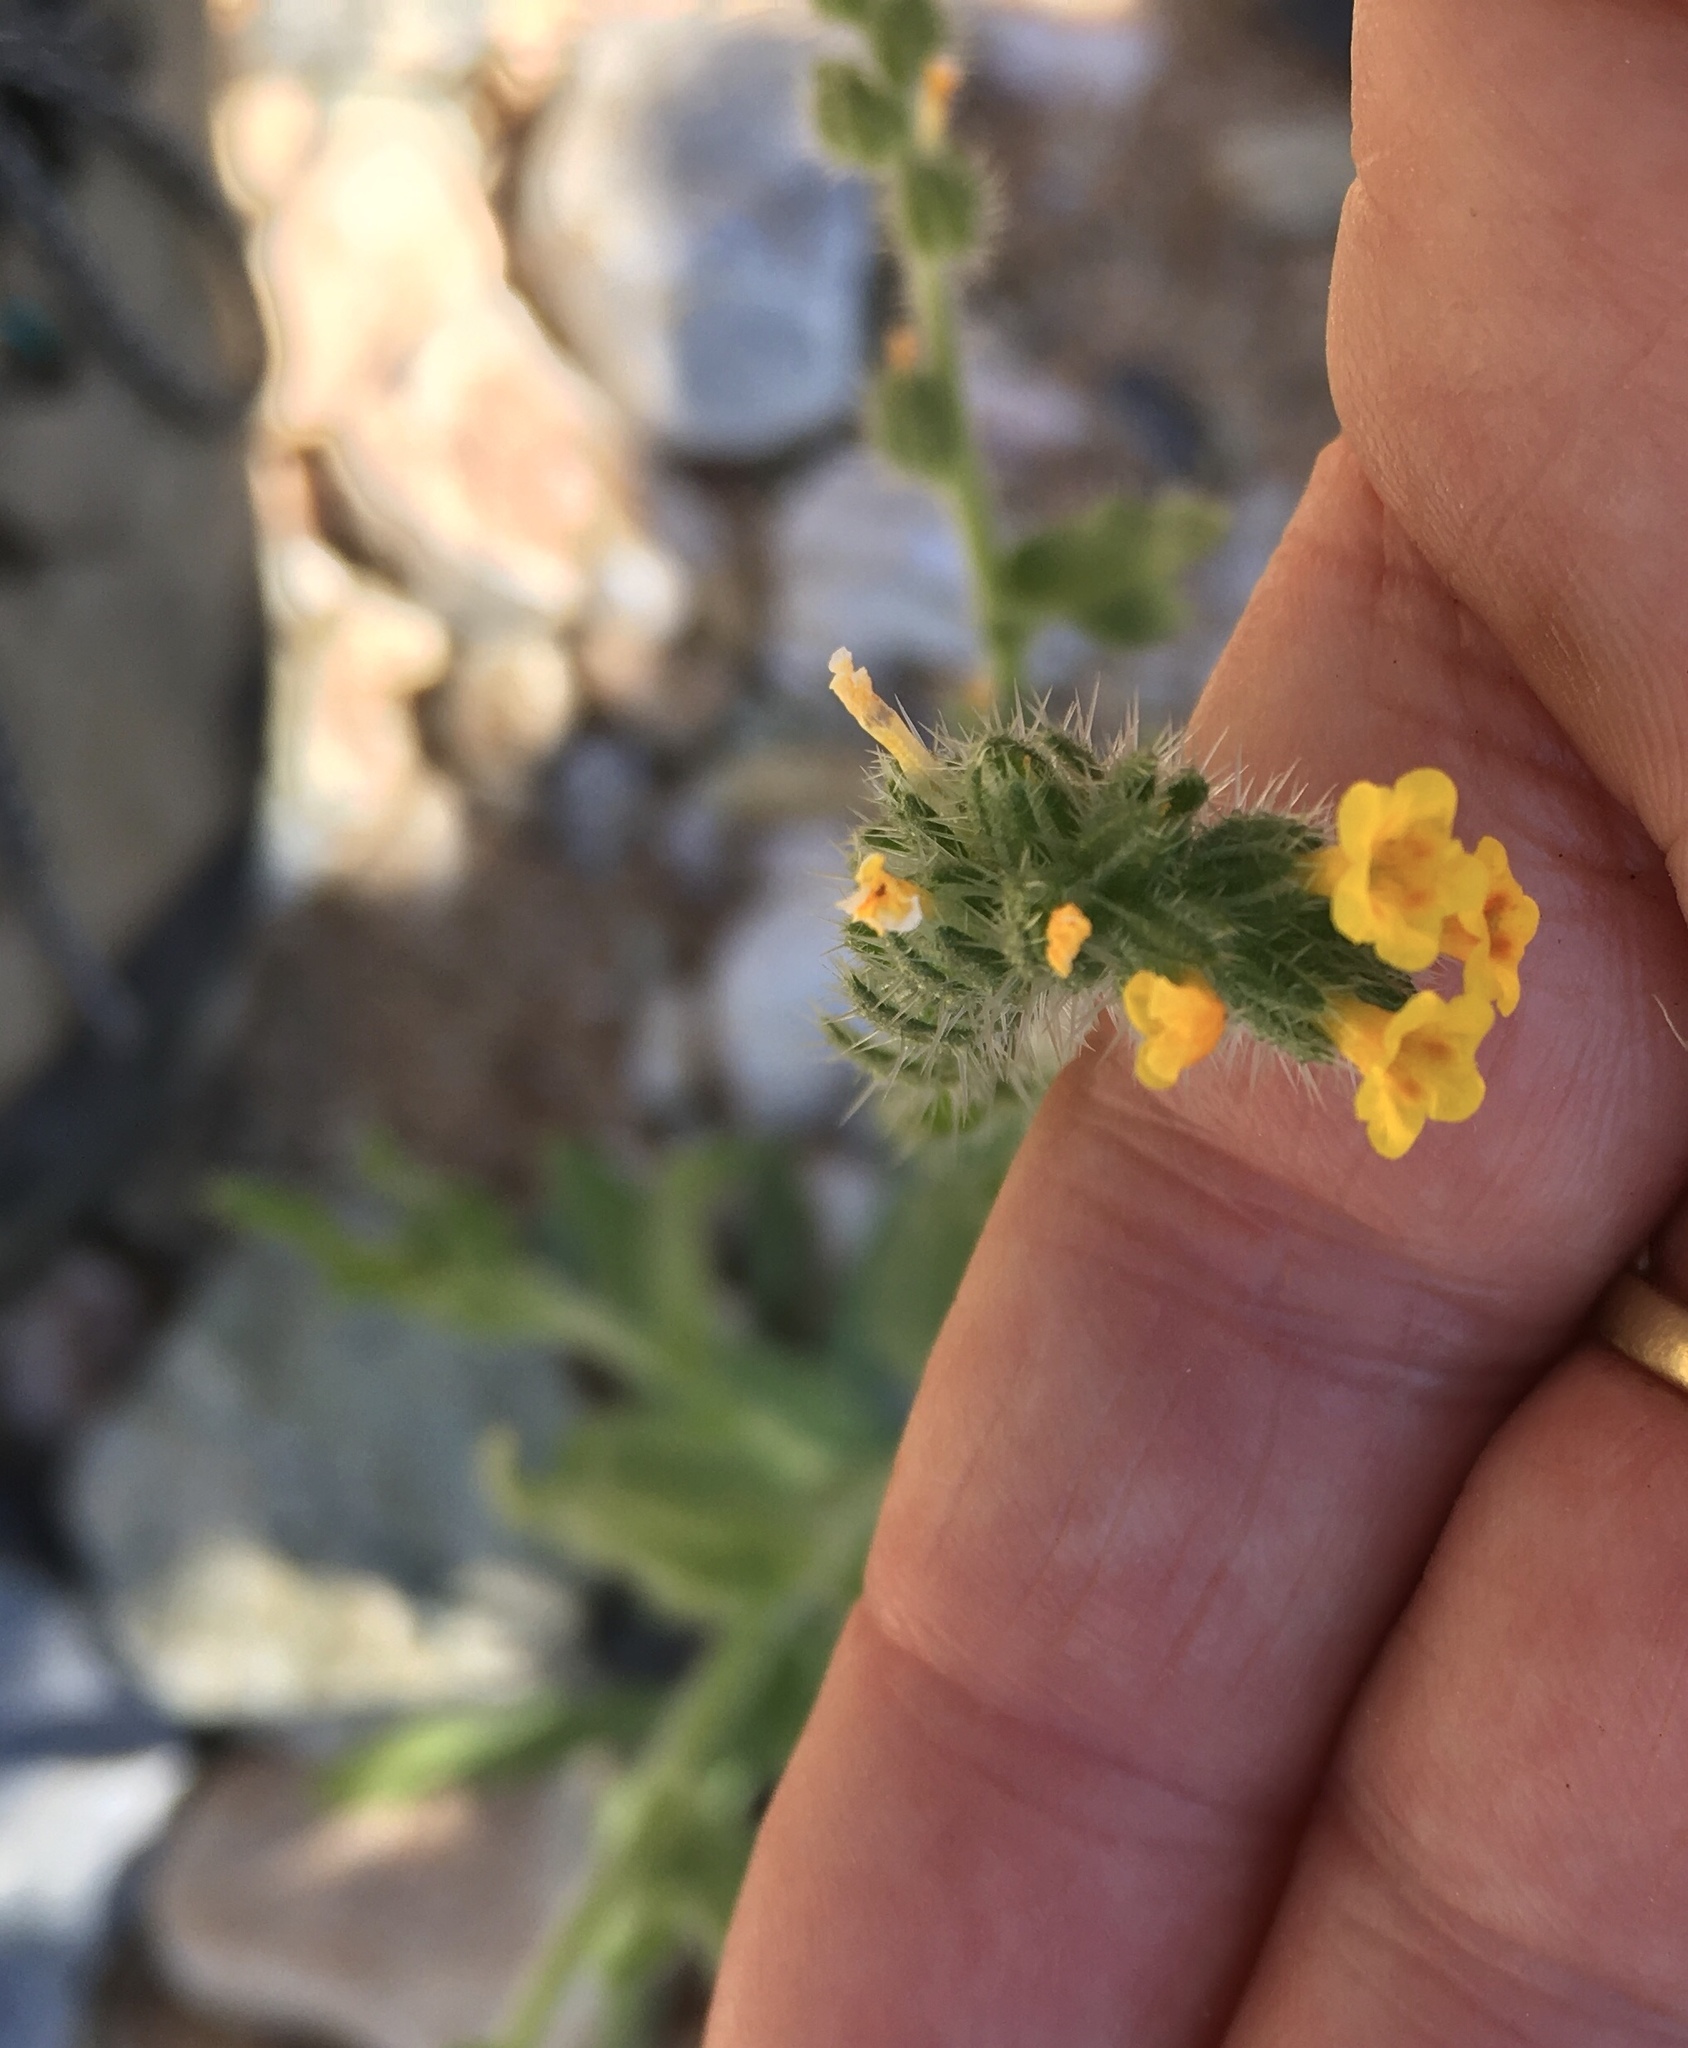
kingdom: Plantae
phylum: Tracheophyta
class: Magnoliopsida
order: Boraginales
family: Boraginaceae
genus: Amsinckia
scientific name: Amsinckia menziesii
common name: Menzies' fiddleneck
